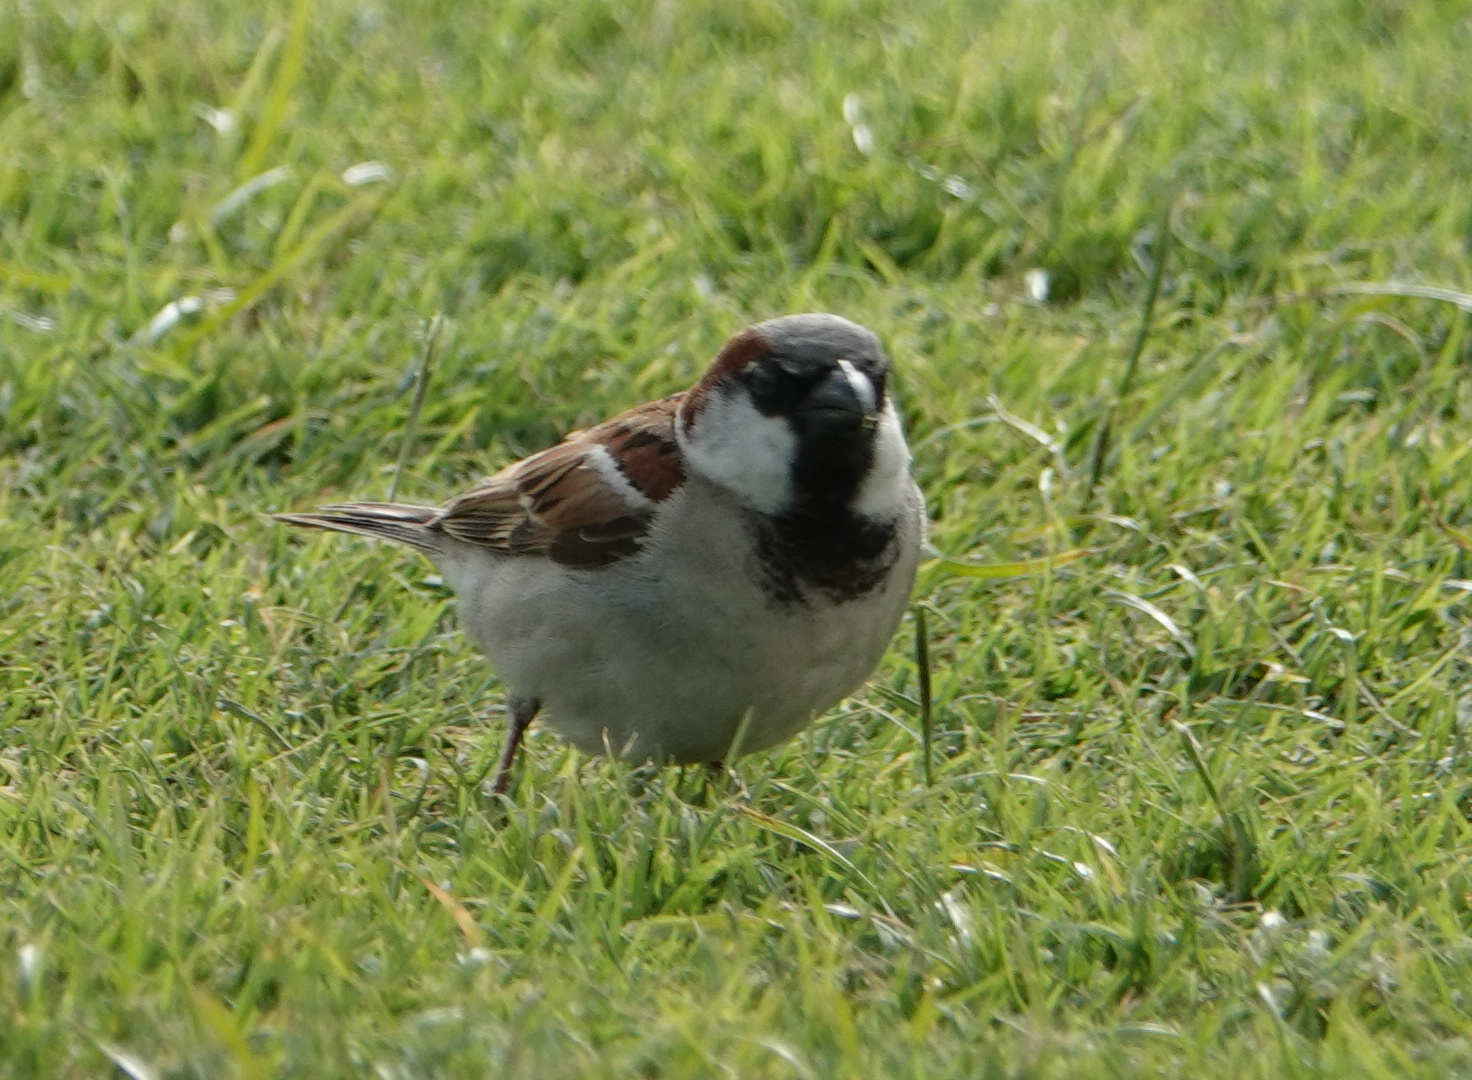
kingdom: Animalia
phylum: Chordata
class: Aves
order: Passeriformes
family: Passeridae
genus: Passer
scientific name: Passer domesticus
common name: House sparrow
